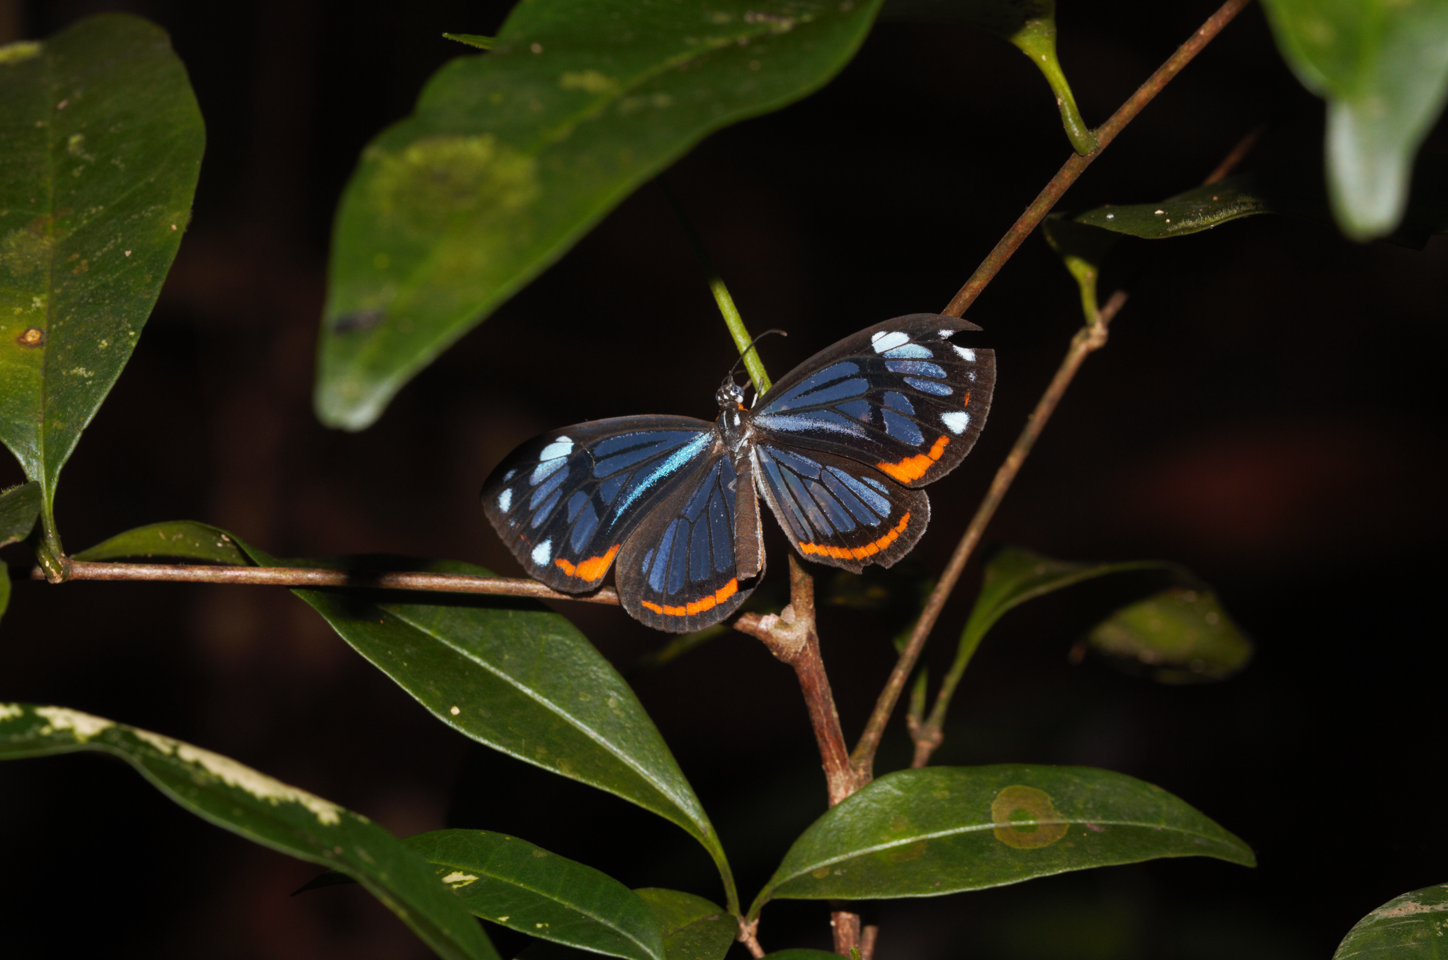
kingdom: Animalia
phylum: Arthropoda
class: Insecta
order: Lepidoptera
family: Riodinidae
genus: Stalachtis
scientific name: Stalachtis phaedusa
